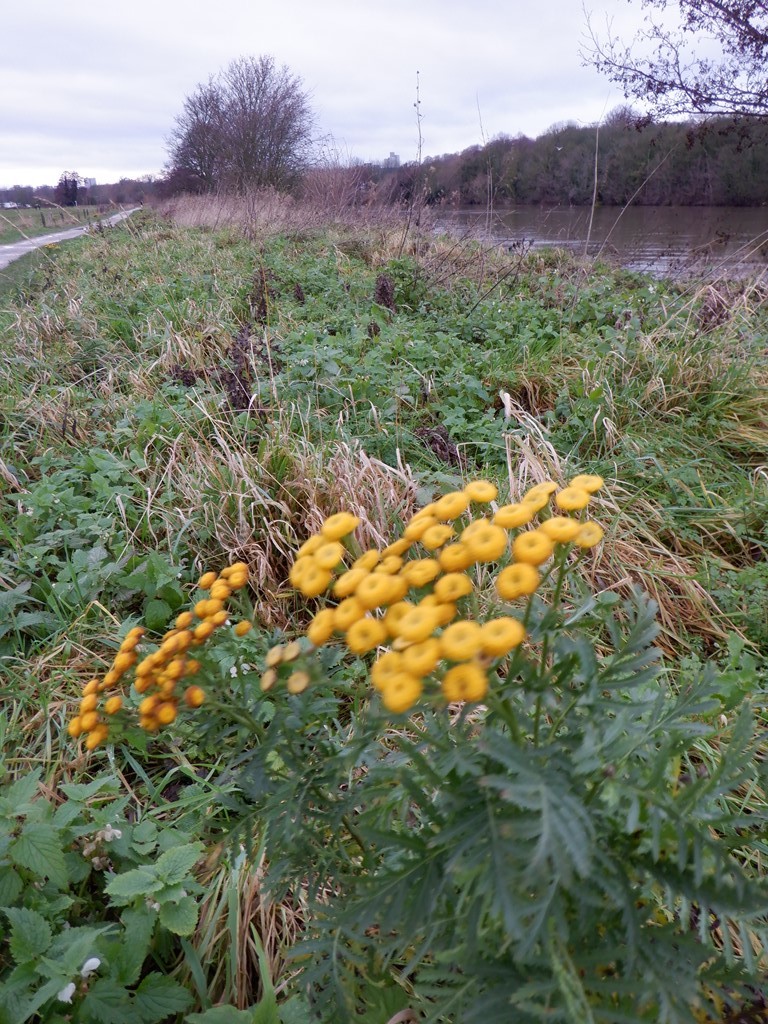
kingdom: Plantae
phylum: Tracheophyta
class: Magnoliopsida
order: Asterales
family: Asteraceae
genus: Tanacetum
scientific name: Tanacetum vulgare
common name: Common tansy
